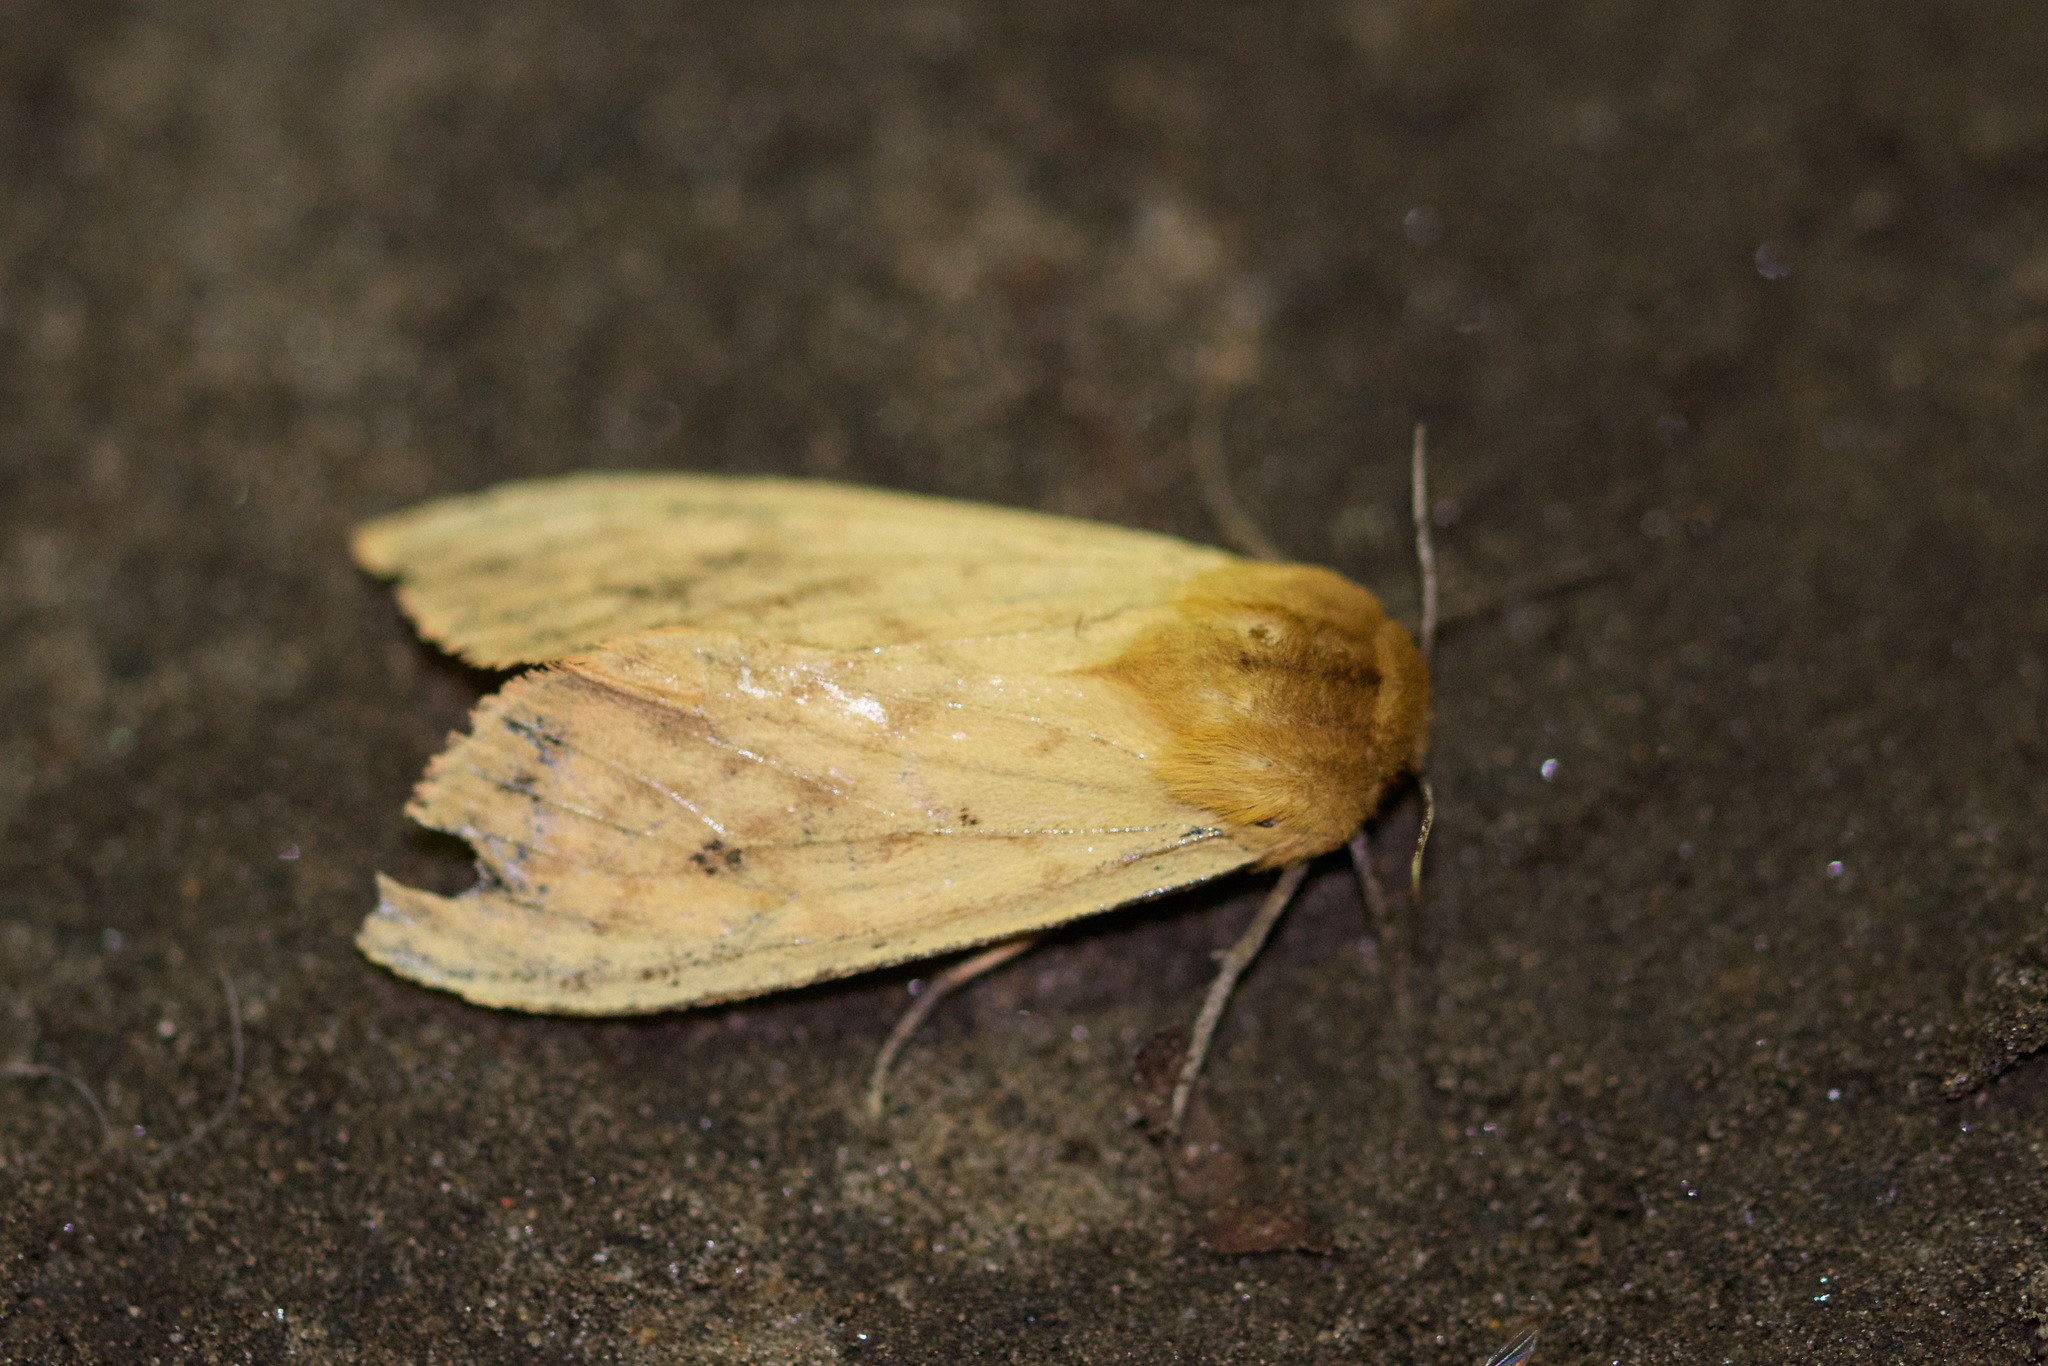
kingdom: Animalia
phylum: Arthropoda
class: Insecta
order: Lepidoptera
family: Erebidae
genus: Pyrrharctia
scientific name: Pyrrharctia isabella
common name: Isabella tiger moth
